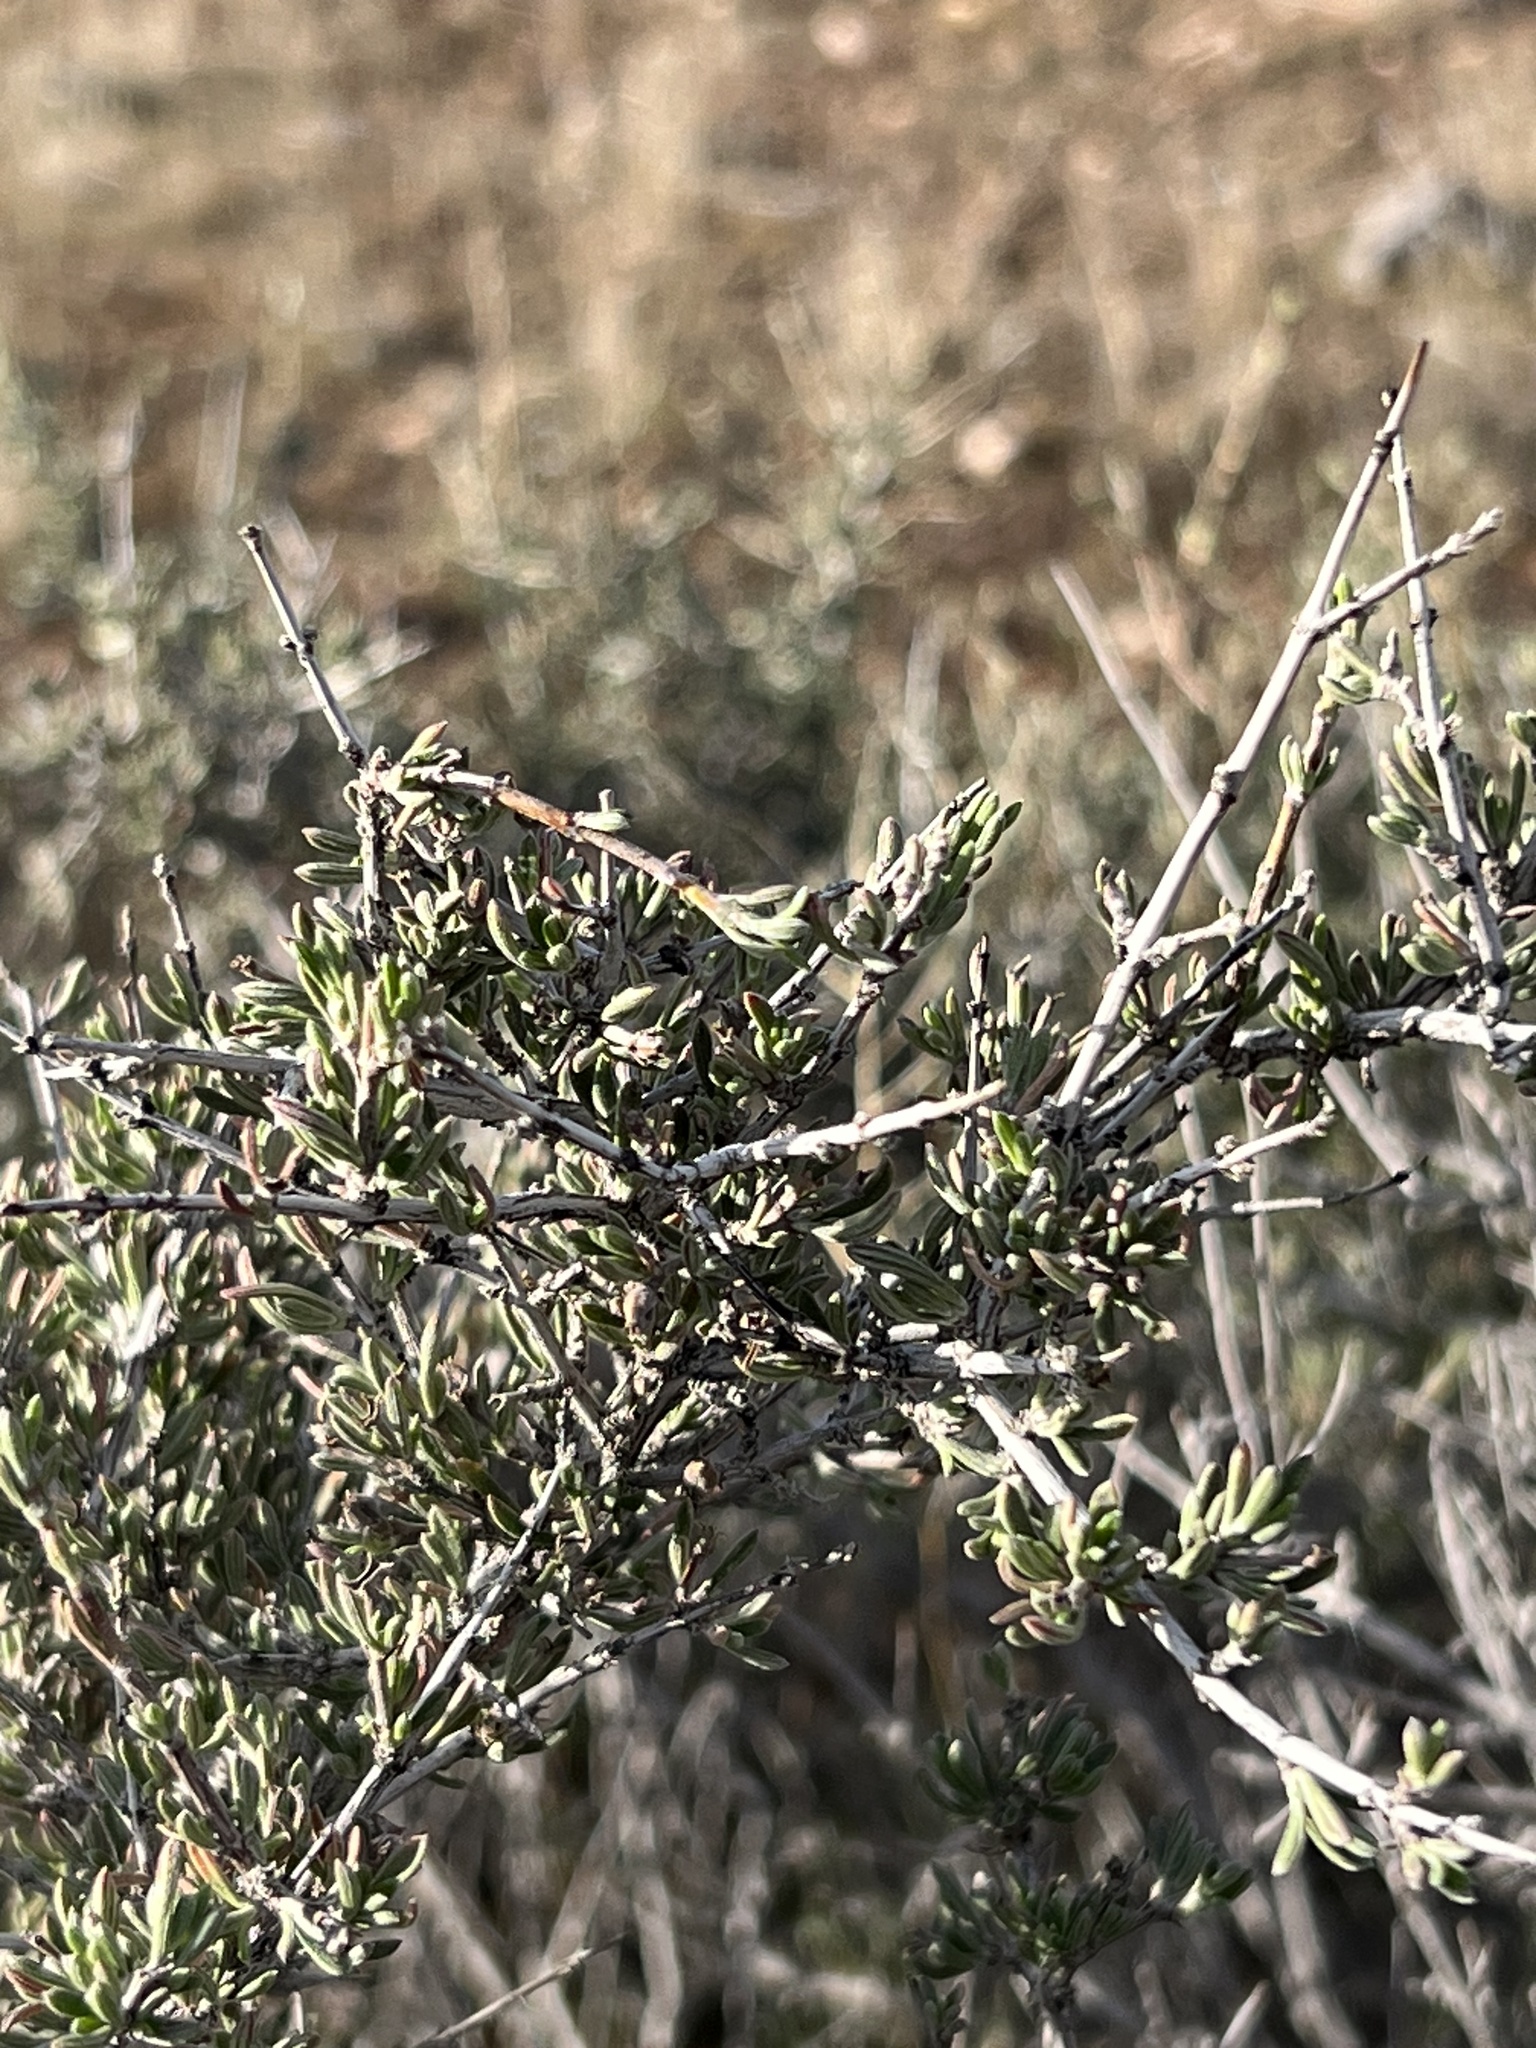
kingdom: Plantae
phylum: Tracheophyta
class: Magnoliopsida
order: Rosales
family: Rosaceae
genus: Coleogyne
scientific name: Coleogyne ramosissima
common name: Blackbrush
